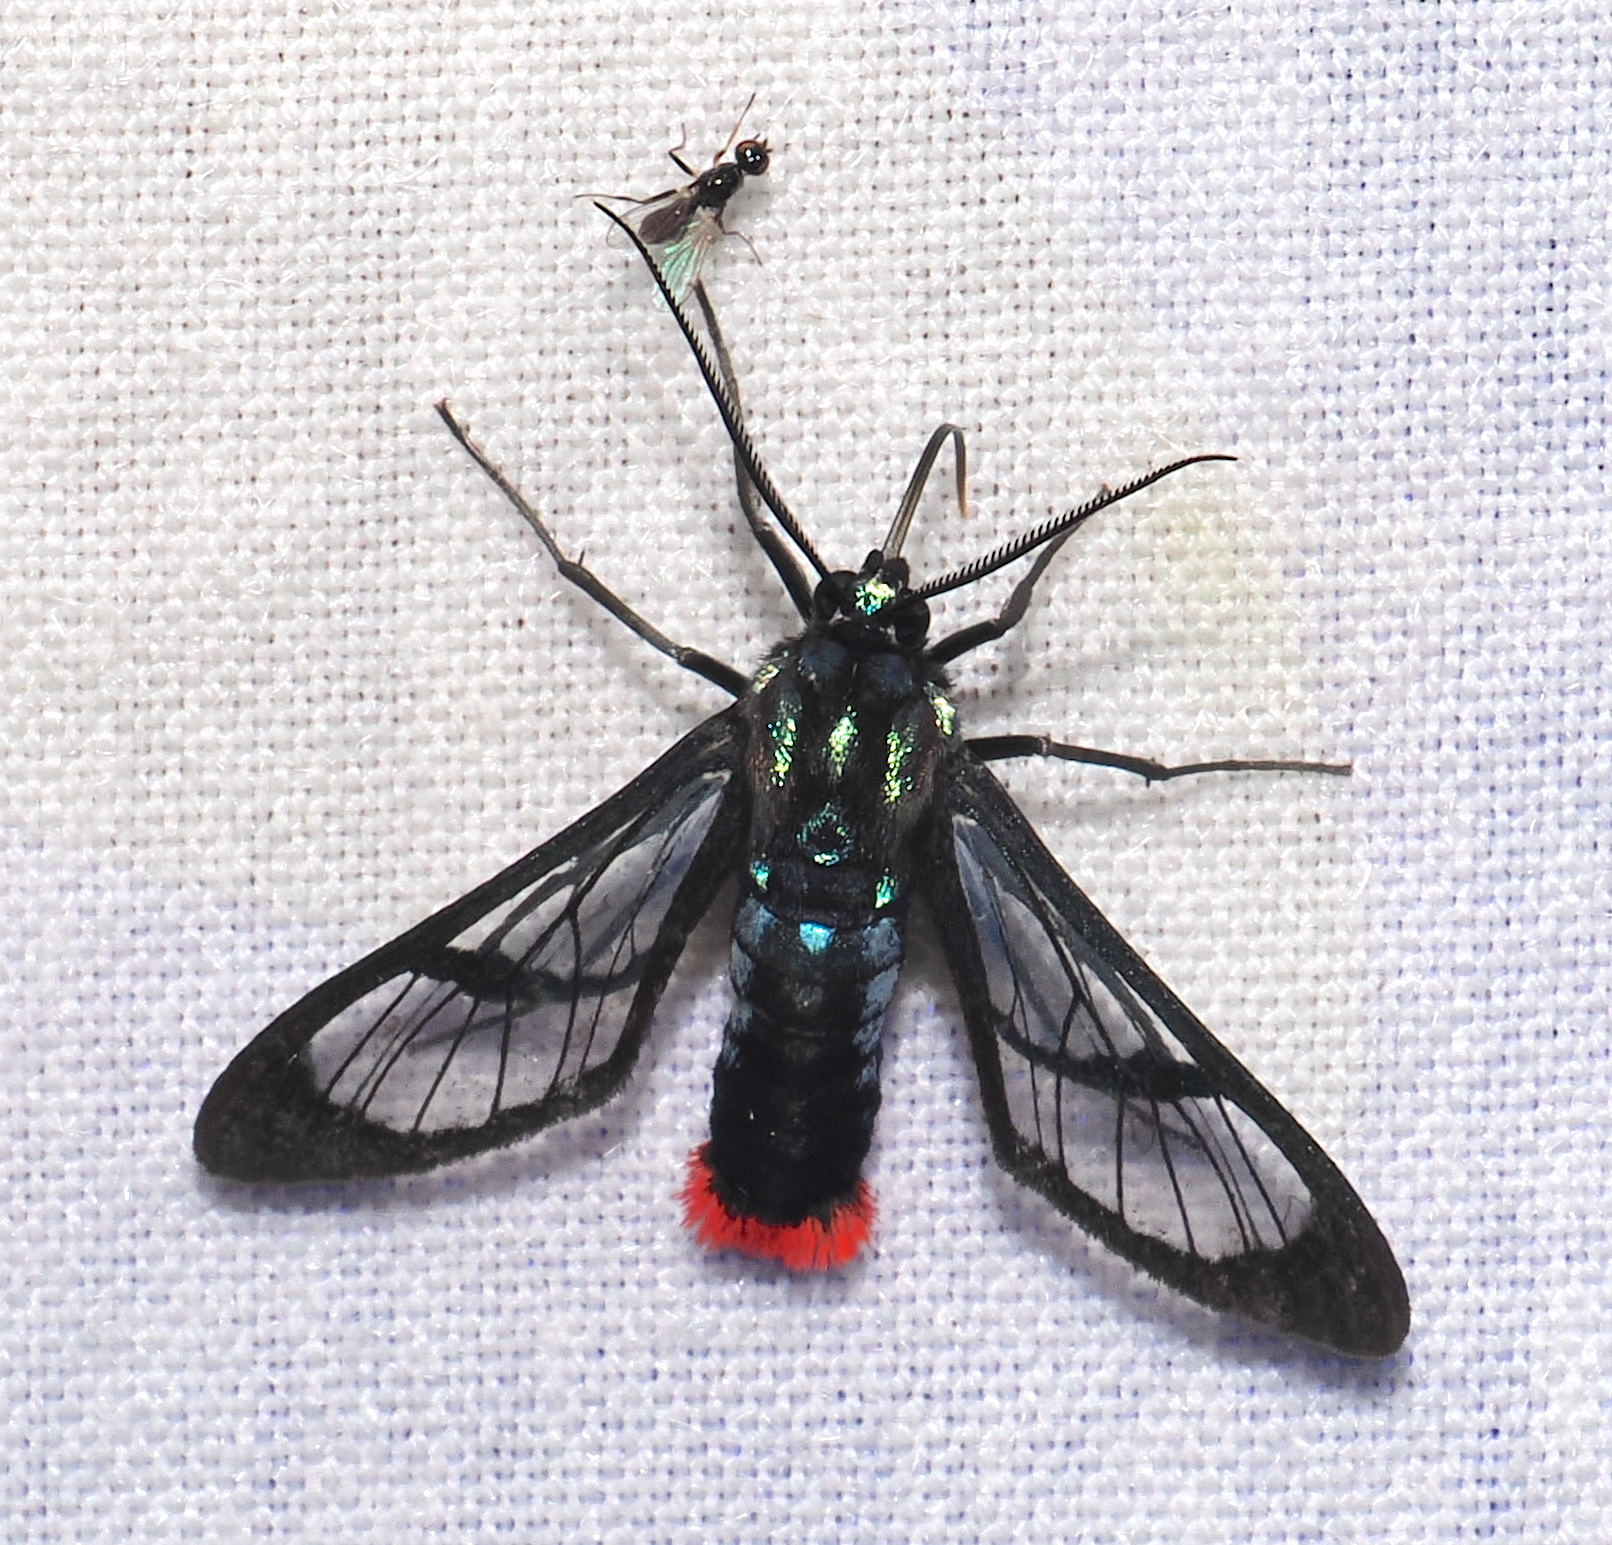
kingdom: Animalia
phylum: Arthropoda
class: Insecta
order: Lepidoptera
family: Erebidae
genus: Phoenicoprocta
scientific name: Phoenicoprocta vacillans
